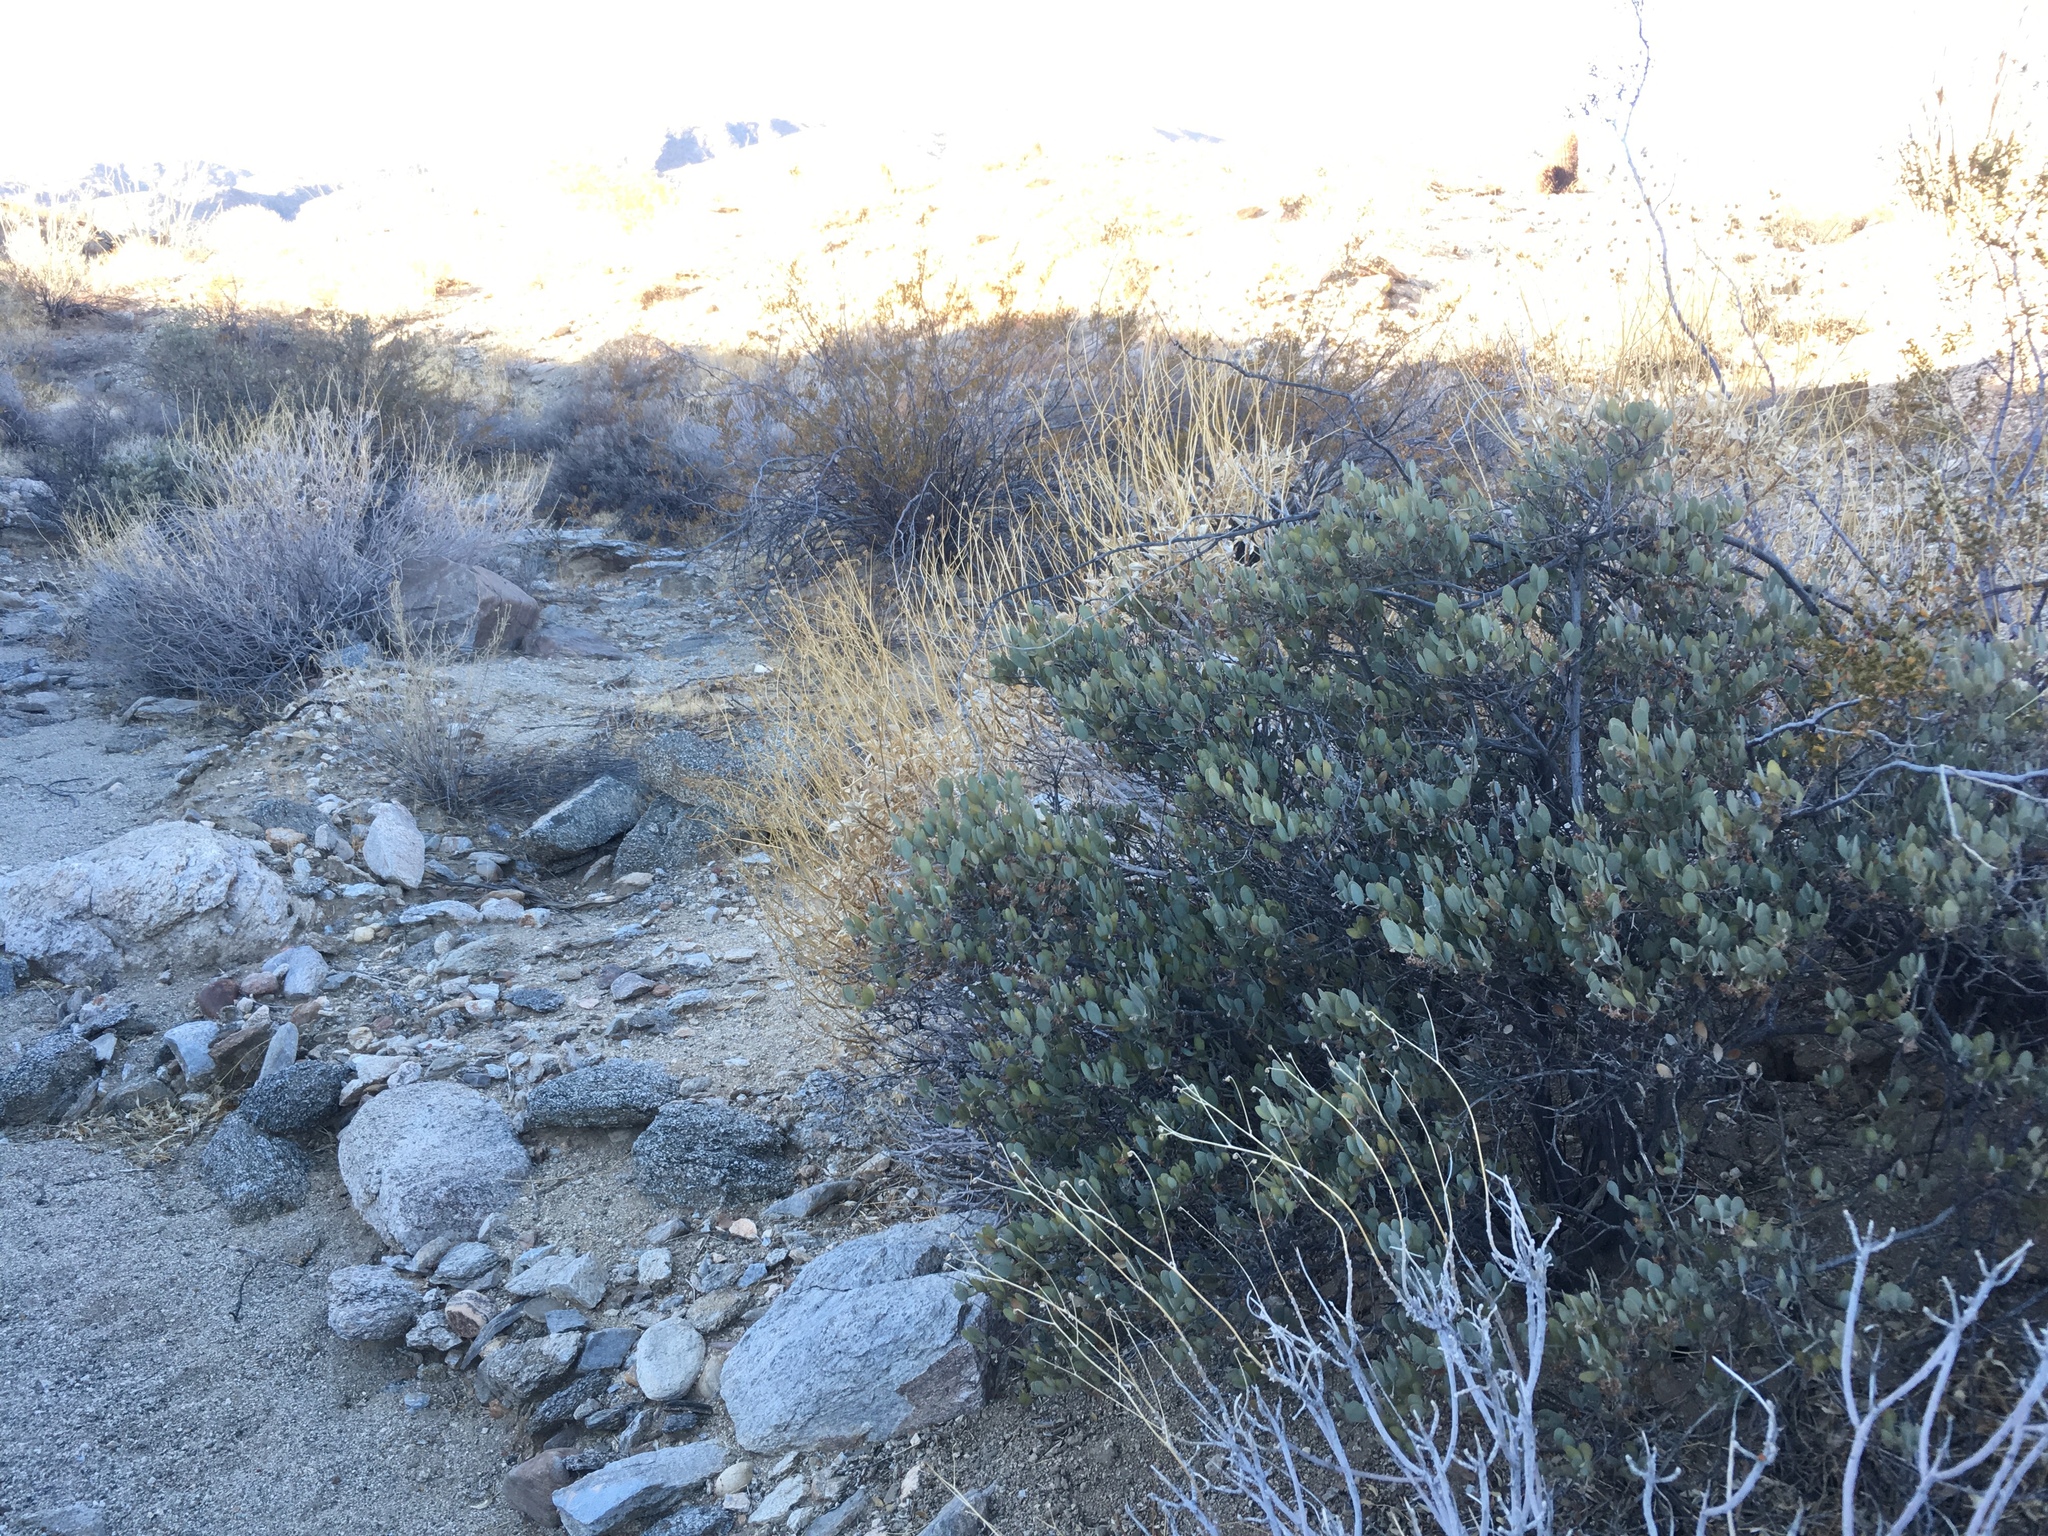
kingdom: Plantae
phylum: Tracheophyta
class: Magnoliopsida
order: Caryophyllales
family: Simmondsiaceae
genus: Simmondsia
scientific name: Simmondsia chinensis
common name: Jojoba
